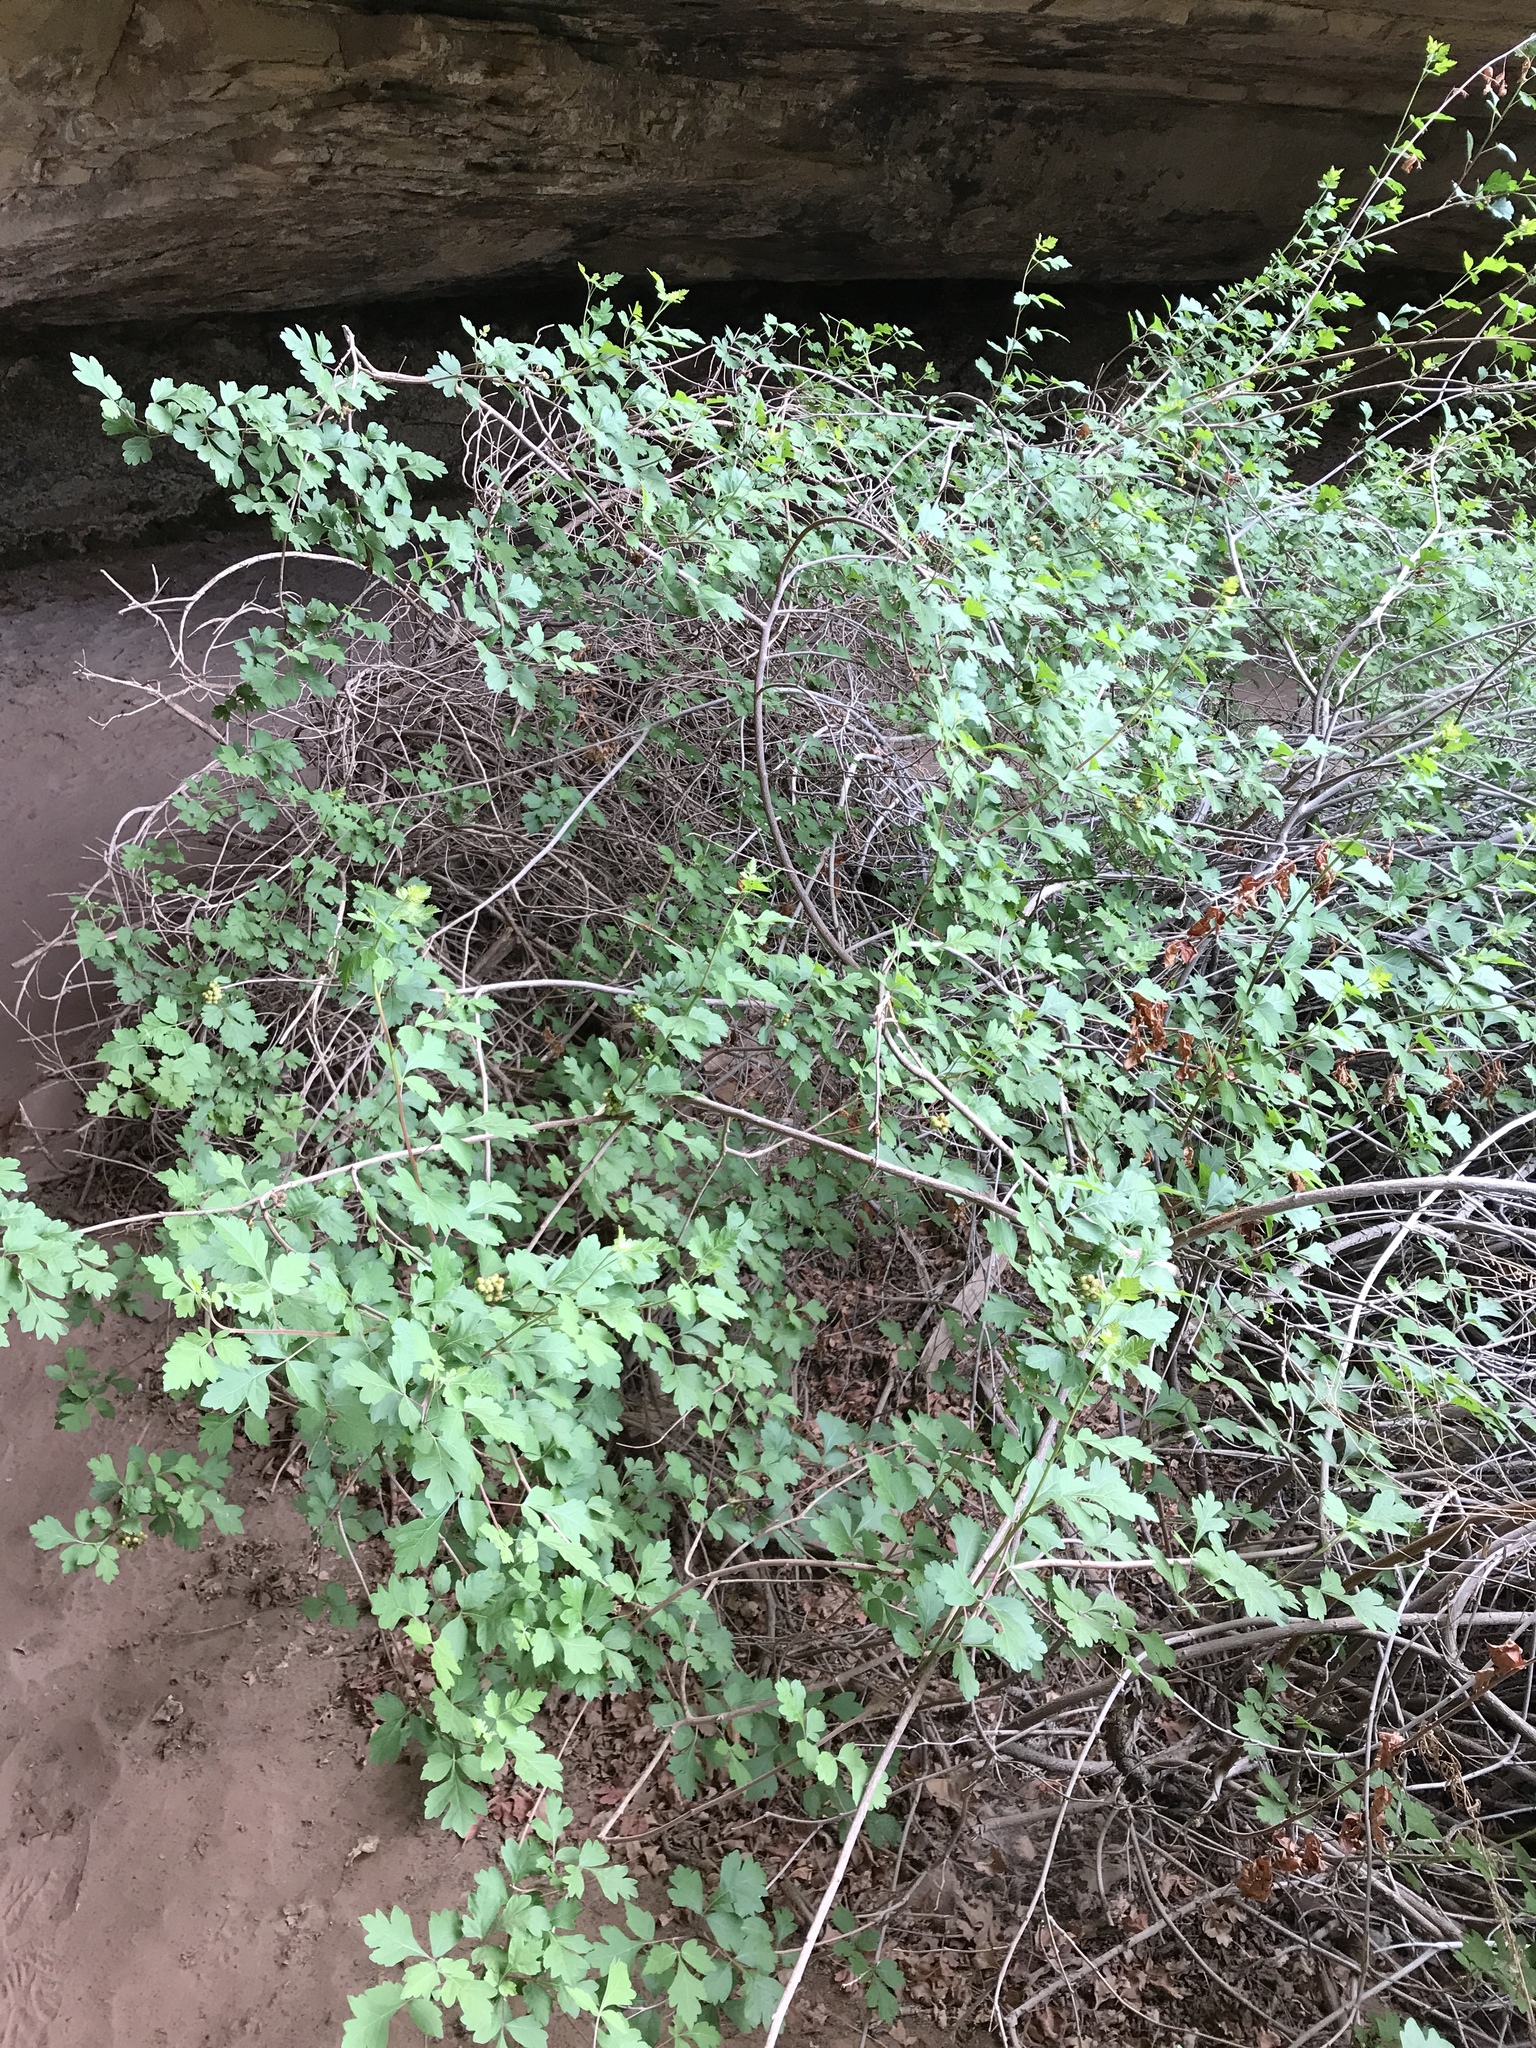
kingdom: Plantae
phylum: Tracheophyta
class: Magnoliopsida
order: Sapindales
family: Anacardiaceae
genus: Rhus
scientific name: Rhus aromatica
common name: Aromatic sumac
